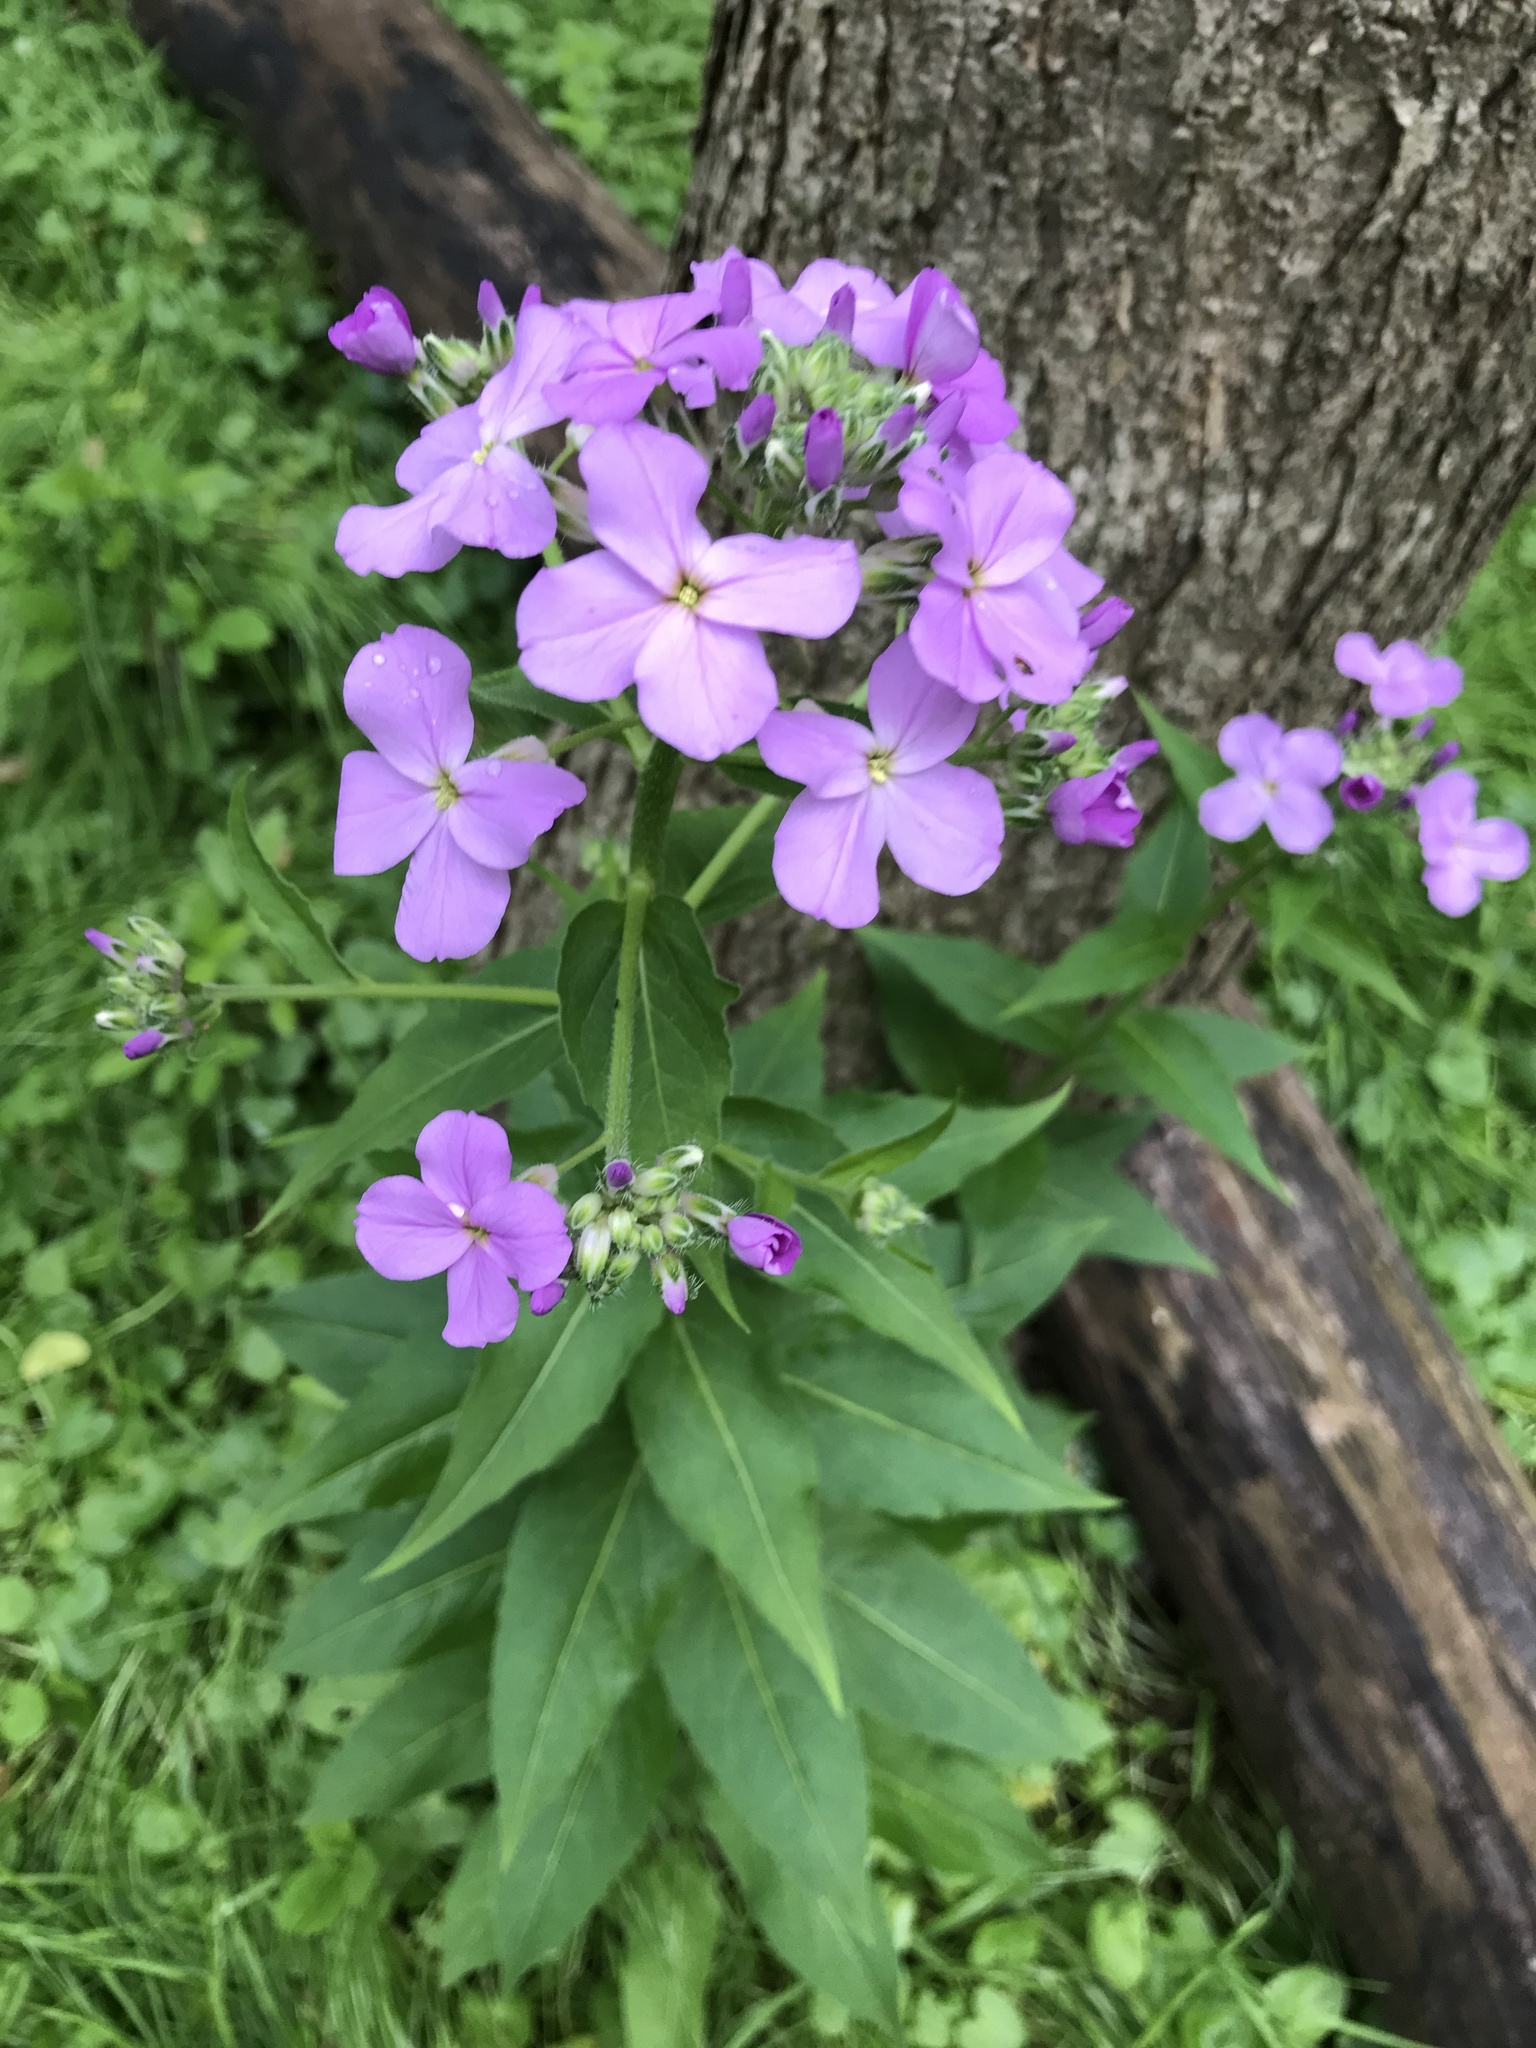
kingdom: Plantae
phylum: Tracheophyta
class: Magnoliopsida
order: Brassicales
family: Brassicaceae
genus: Hesperis
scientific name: Hesperis matronalis
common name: Dame's-violet
